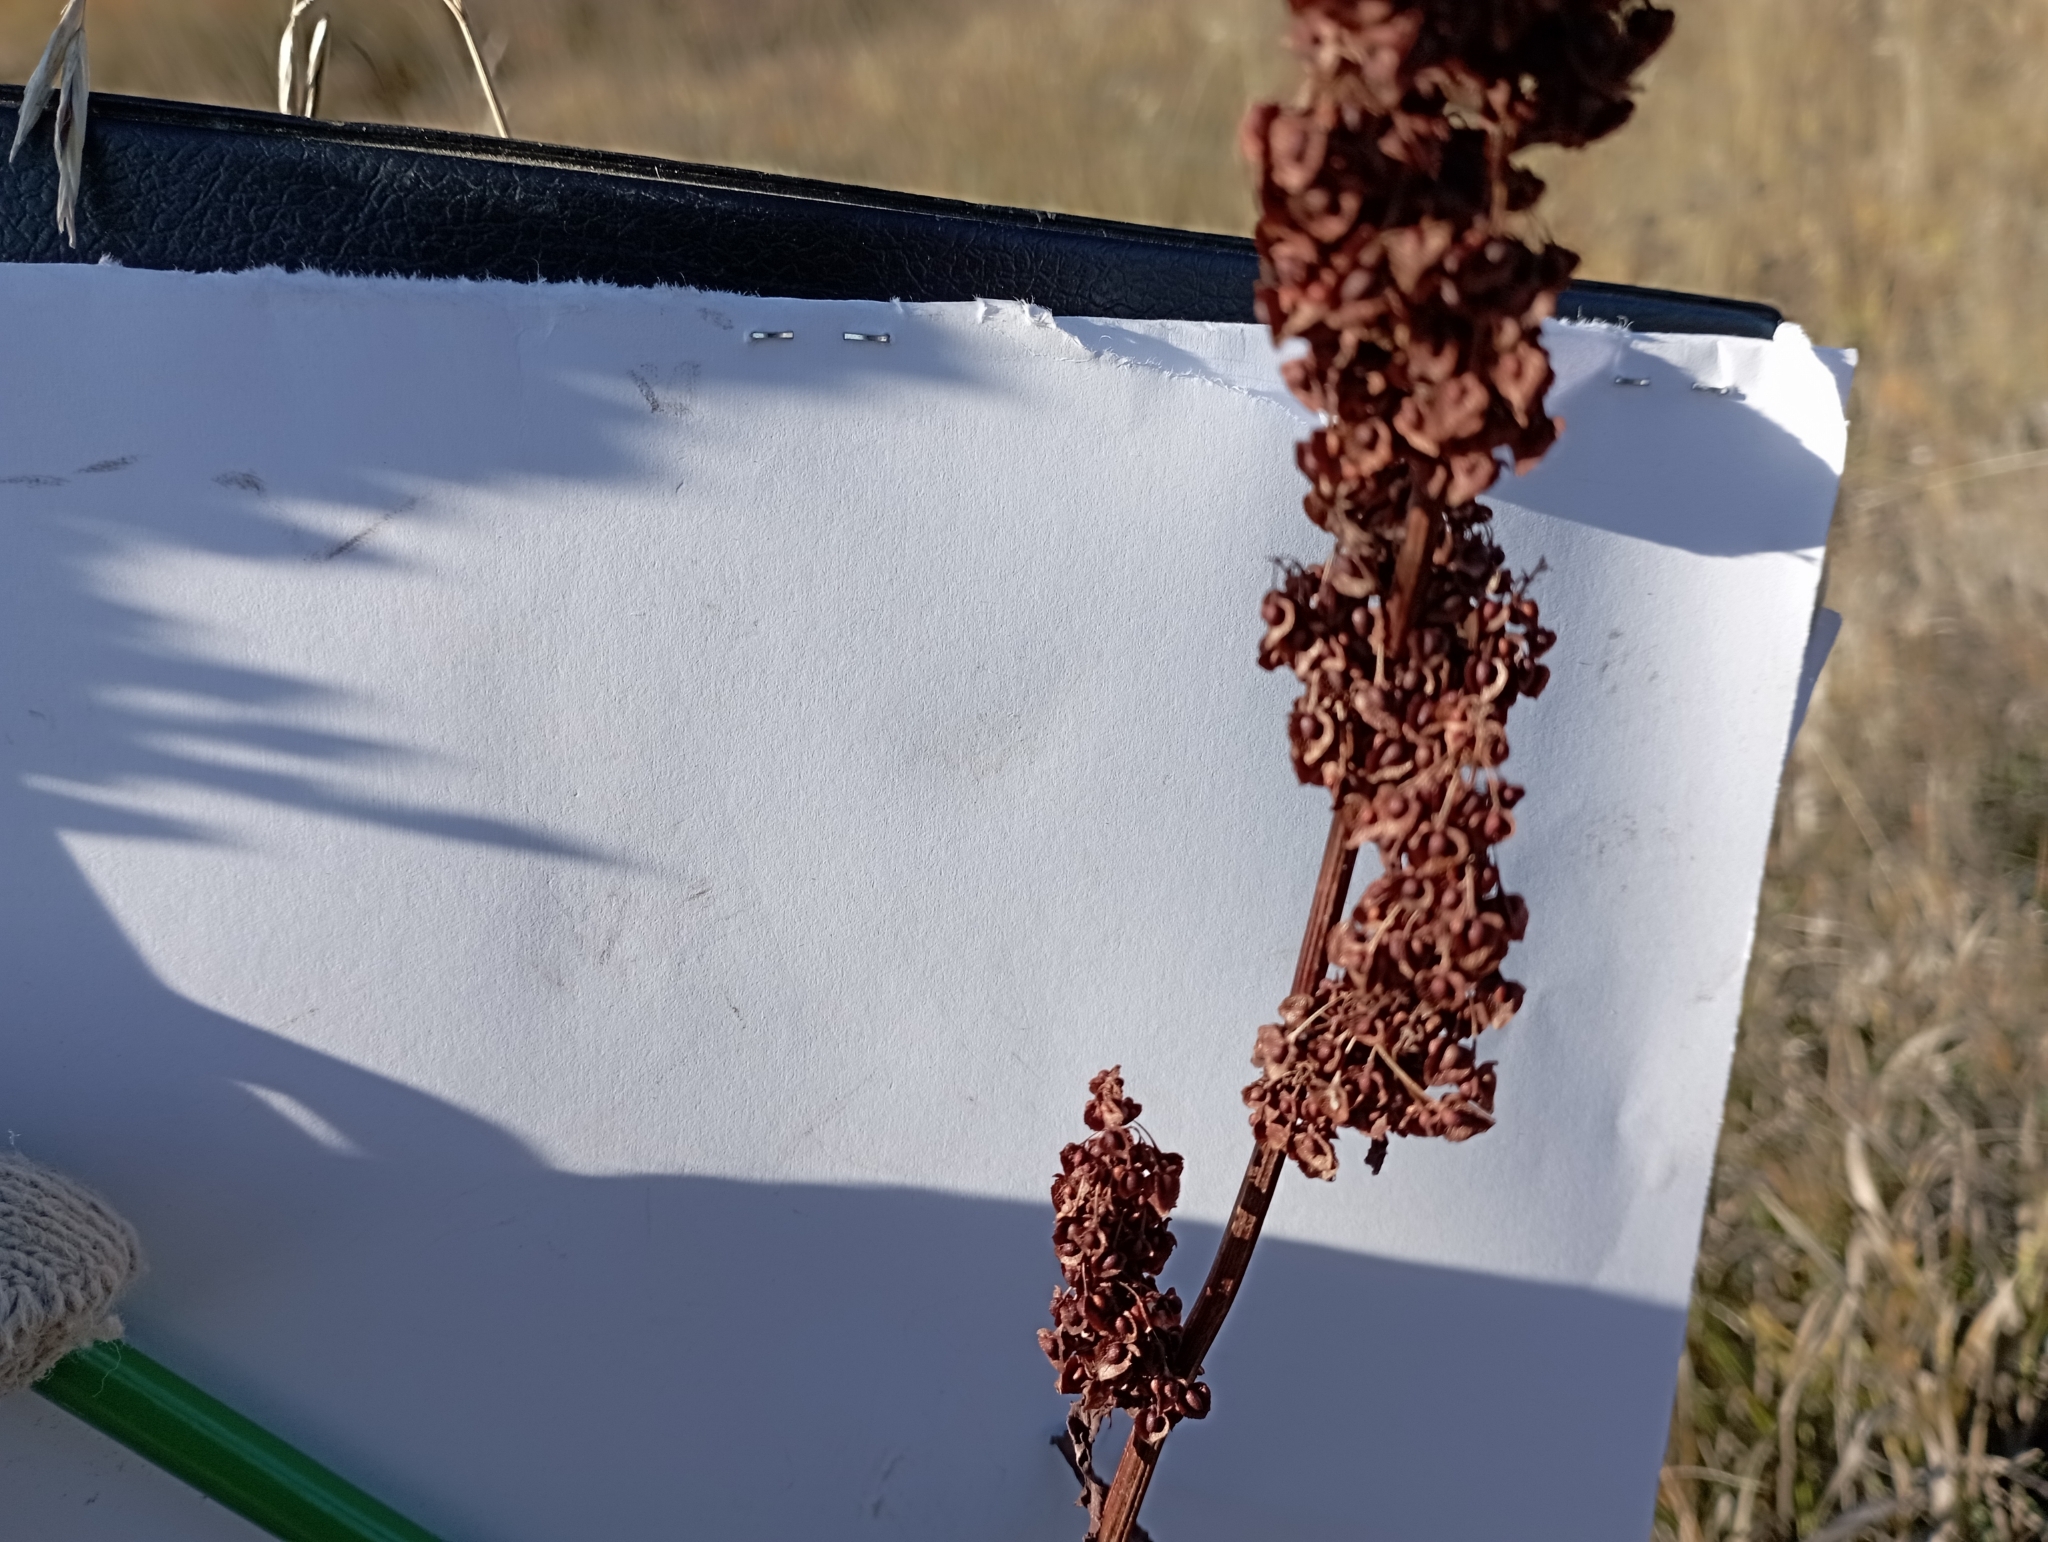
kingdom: Plantae
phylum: Tracheophyta
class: Magnoliopsida
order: Caryophyllales
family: Polygonaceae
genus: Rumex
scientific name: Rumex crispus
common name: Curled dock
